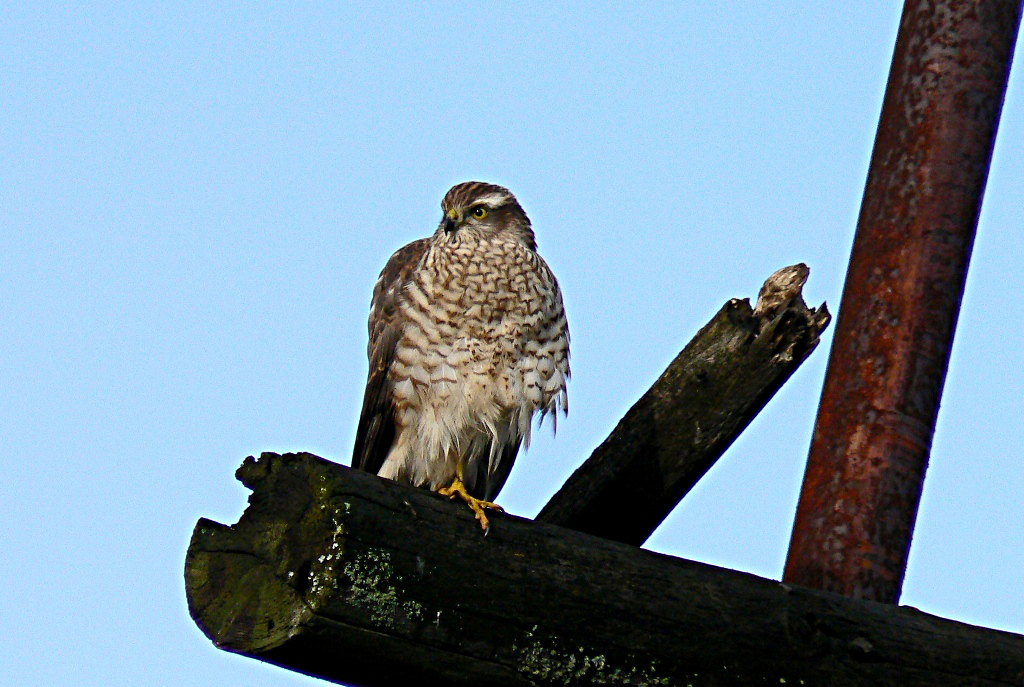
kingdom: Animalia
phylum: Chordata
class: Aves
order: Accipitriformes
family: Accipitridae
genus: Accipiter
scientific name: Accipiter nisus
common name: Eurasian sparrowhawk
